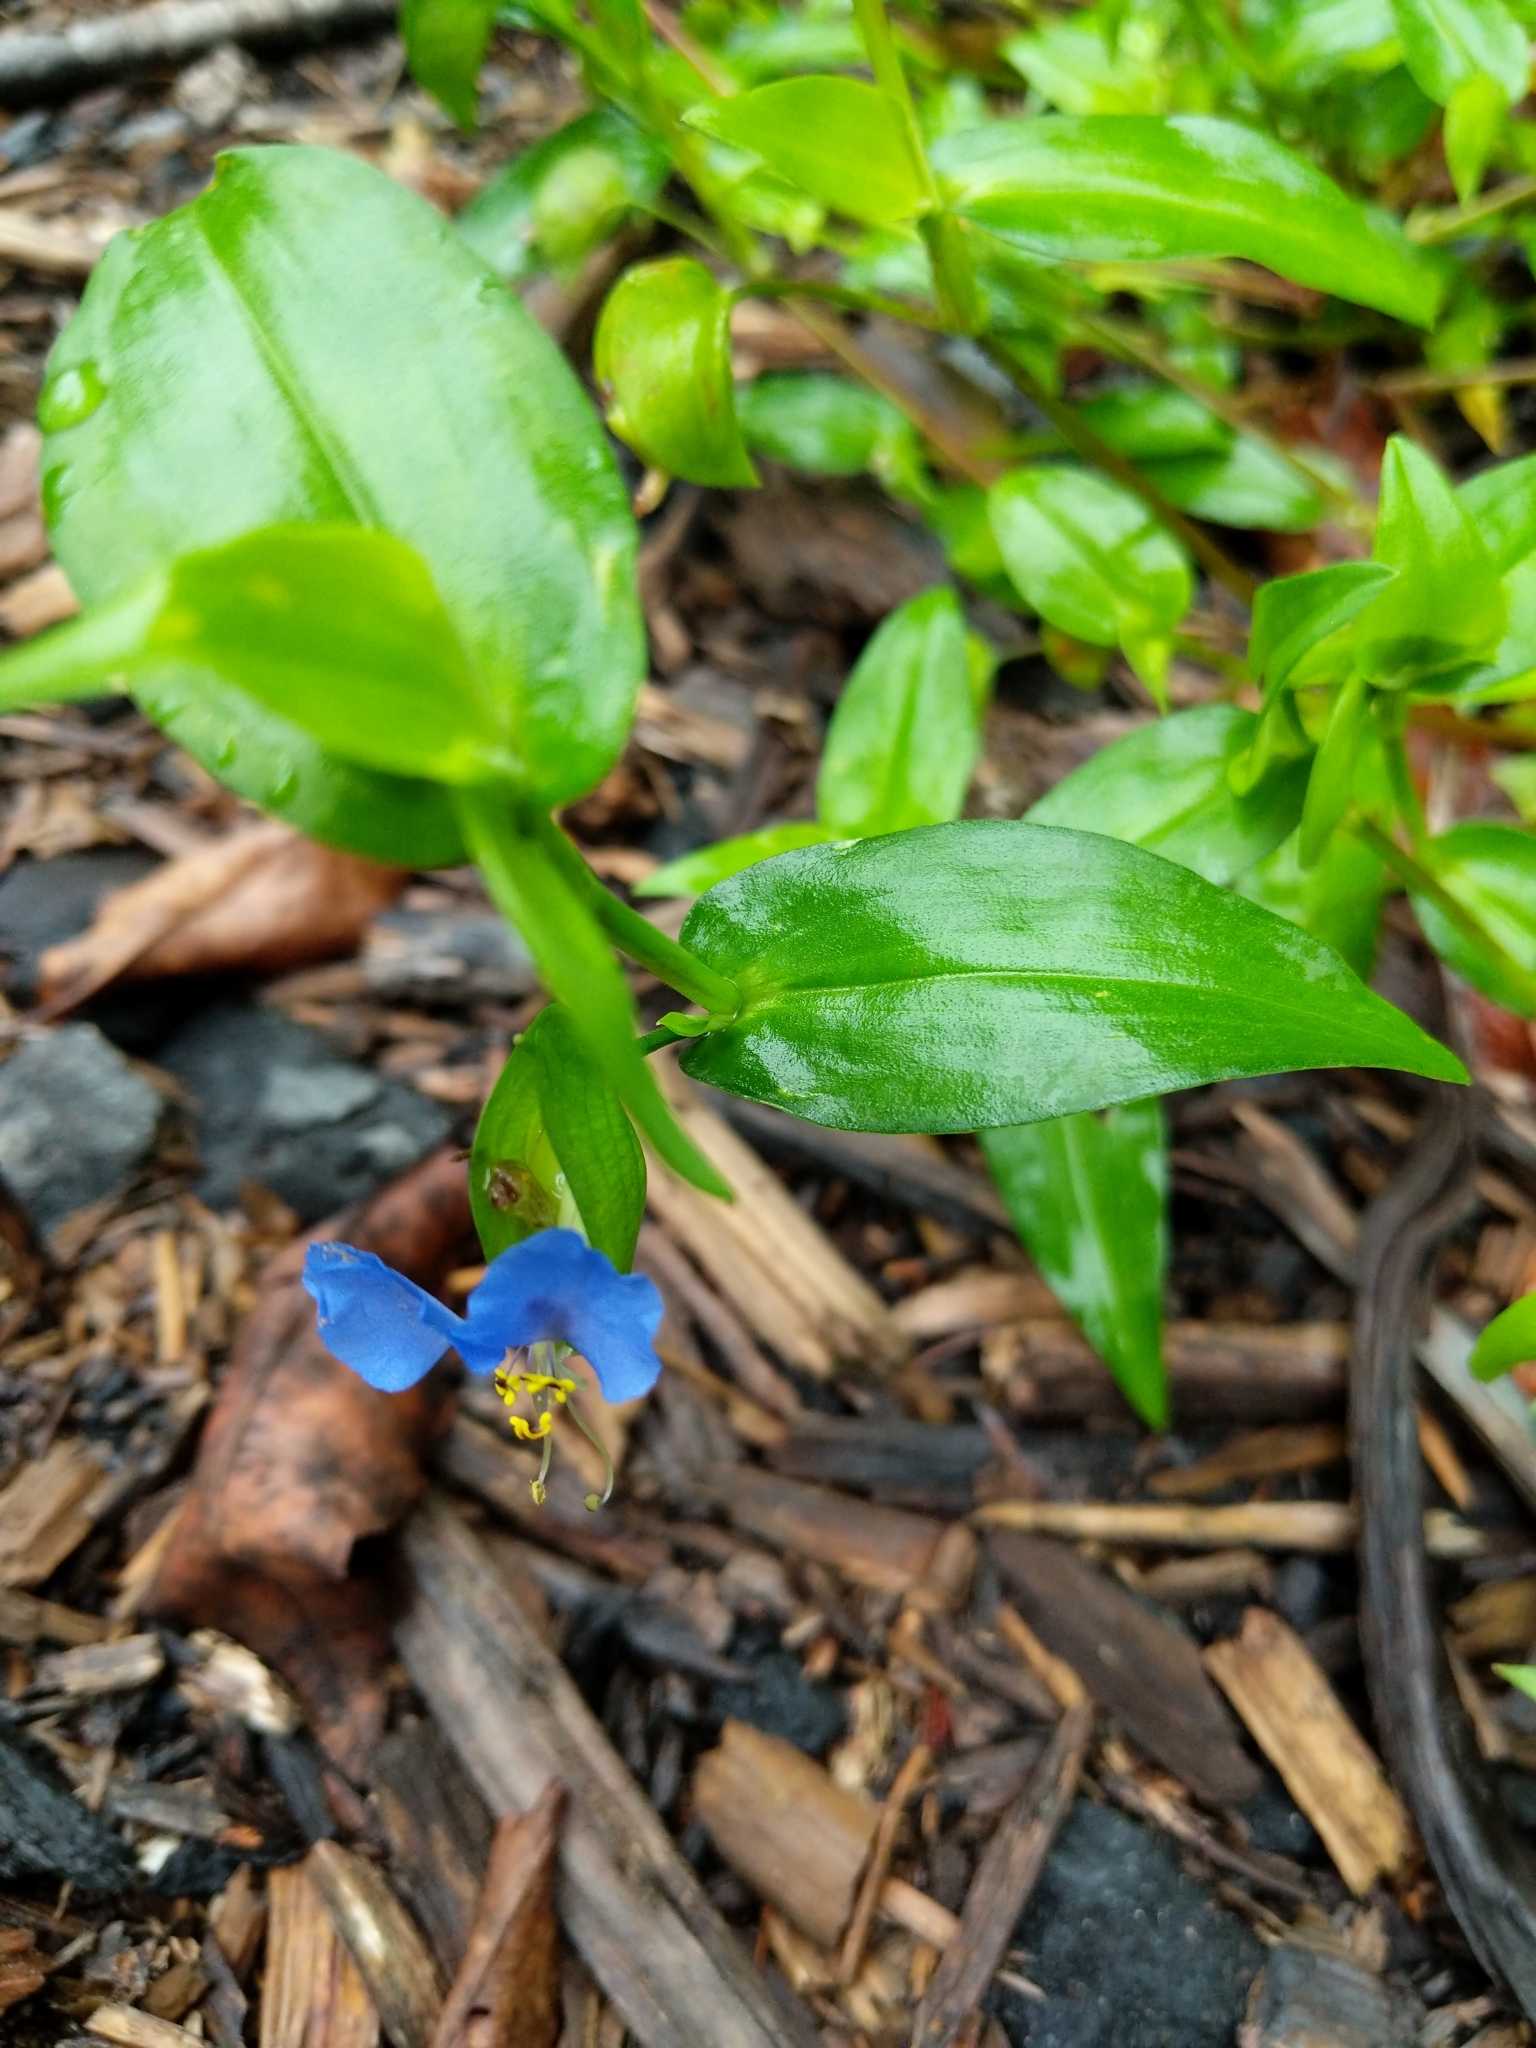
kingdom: Plantae
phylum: Tracheophyta
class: Liliopsida
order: Commelinales
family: Commelinaceae
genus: Commelina
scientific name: Commelina communis
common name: Asiatic dayflower
